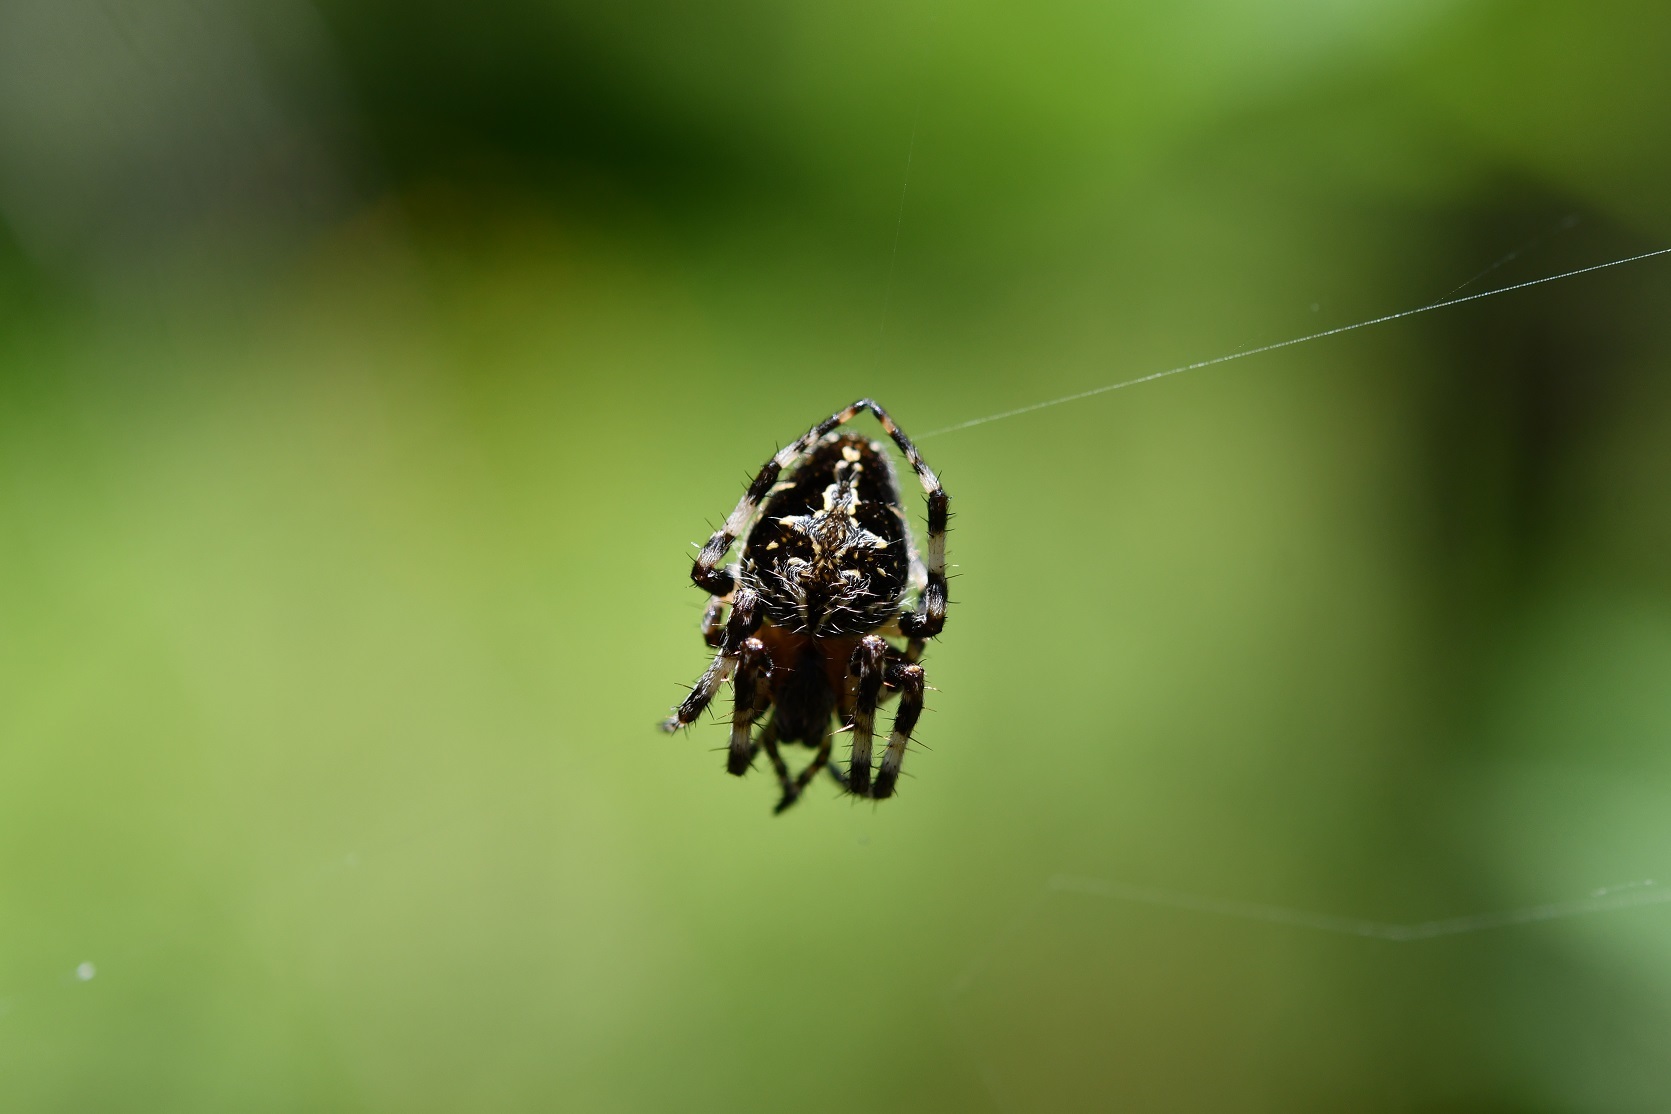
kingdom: Animalia
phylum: Arthropoda
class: Arachnida
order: Araneae
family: Araneidae
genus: Neoscona
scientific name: Neoscona orizabensis
